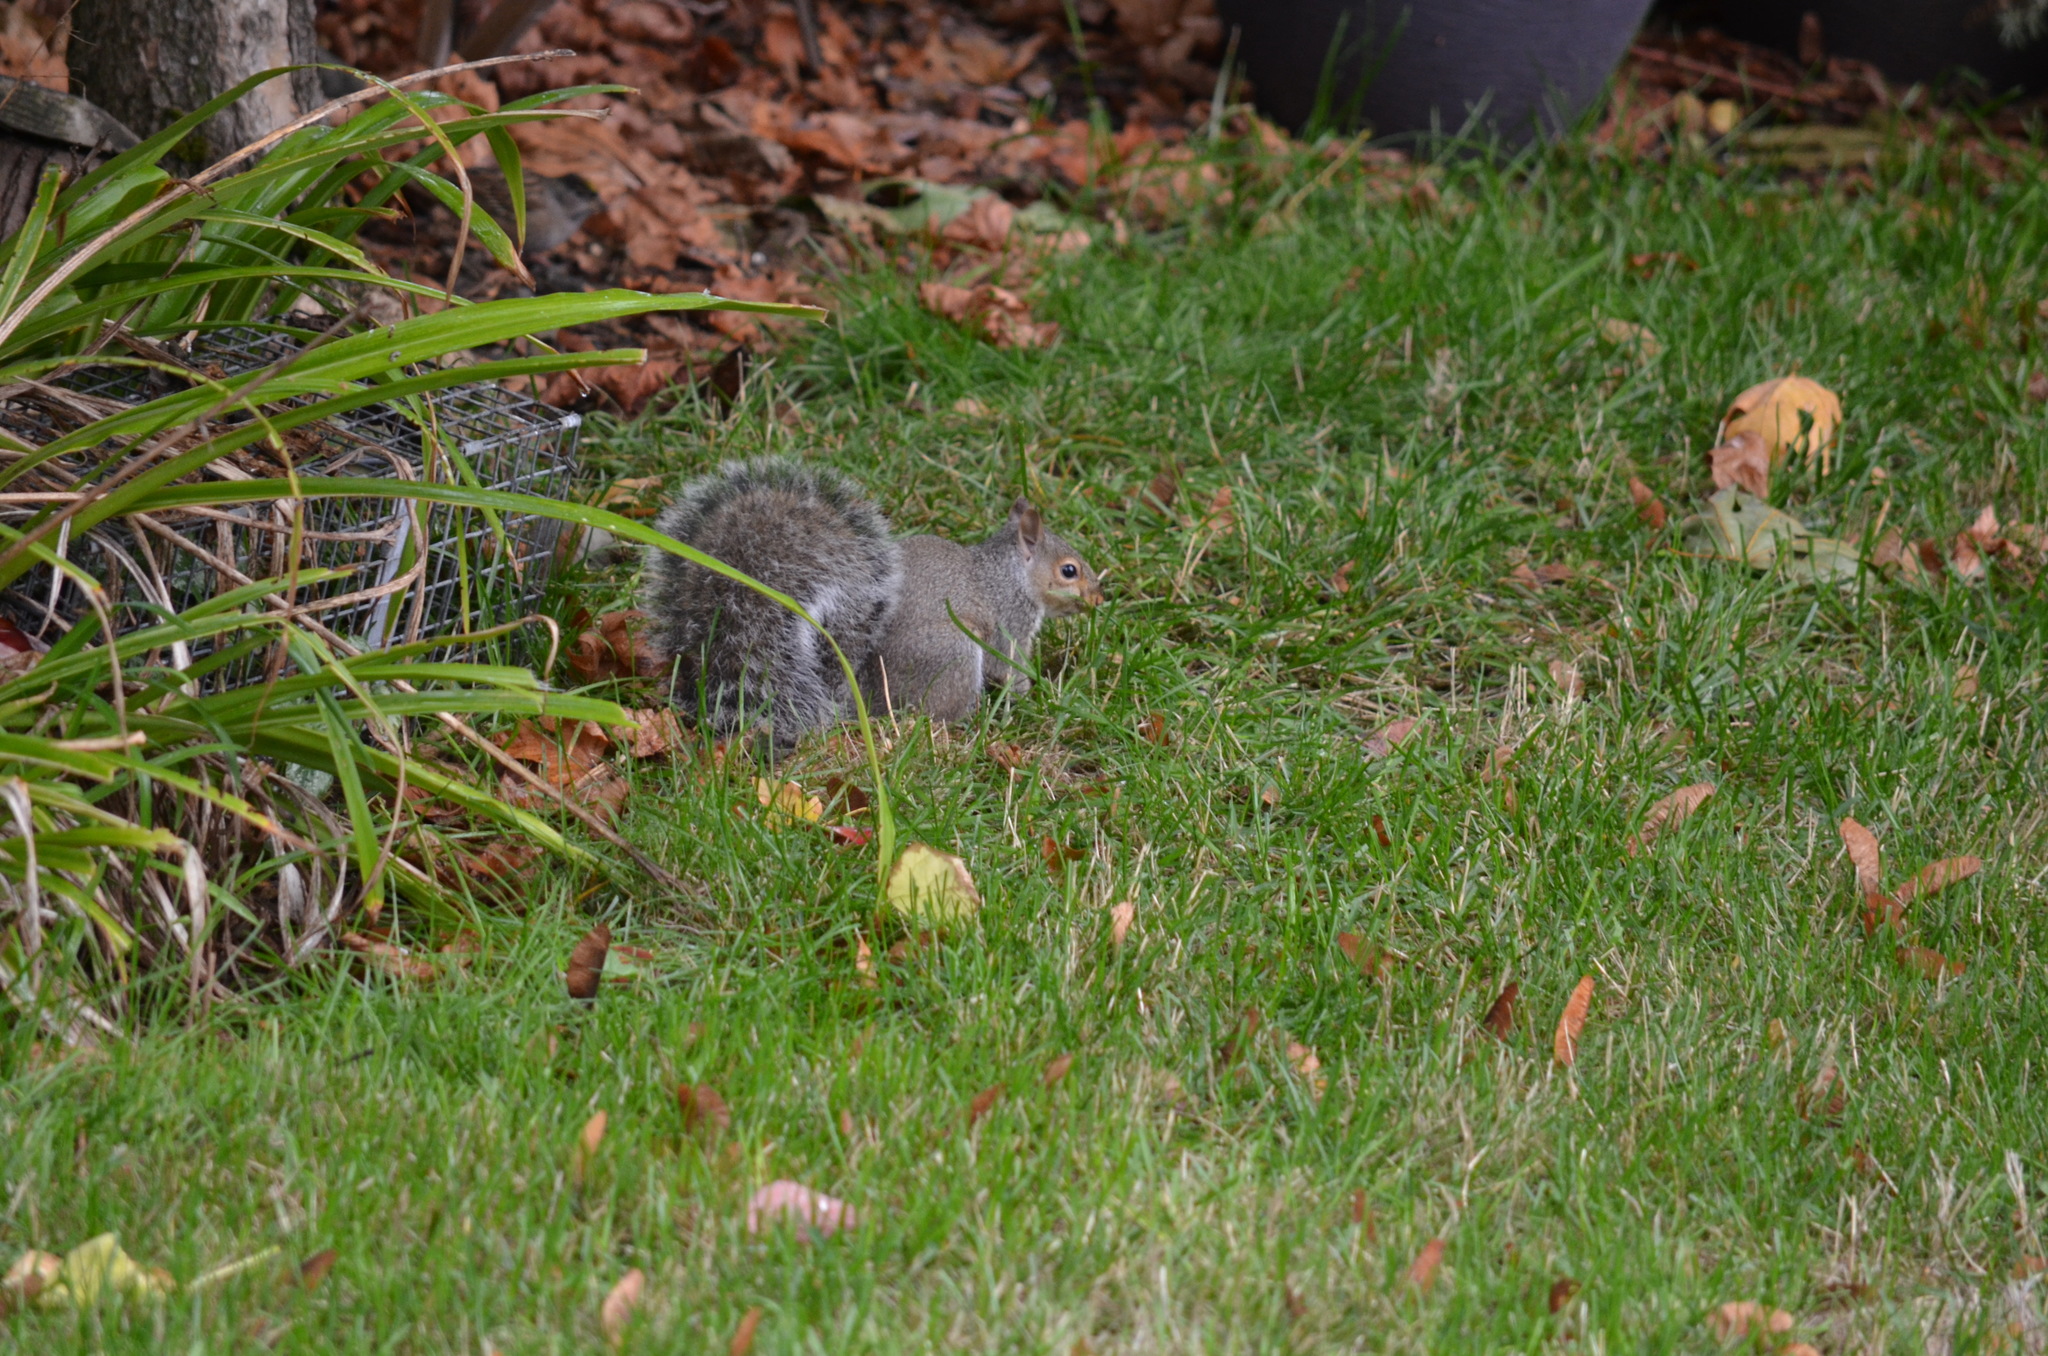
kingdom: Animalia
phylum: Chordata
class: Mammalia
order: Rodentia
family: Sciuridae
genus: Sciurus
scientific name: Sciurus carolinensis
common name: Eastern gray squirrel
